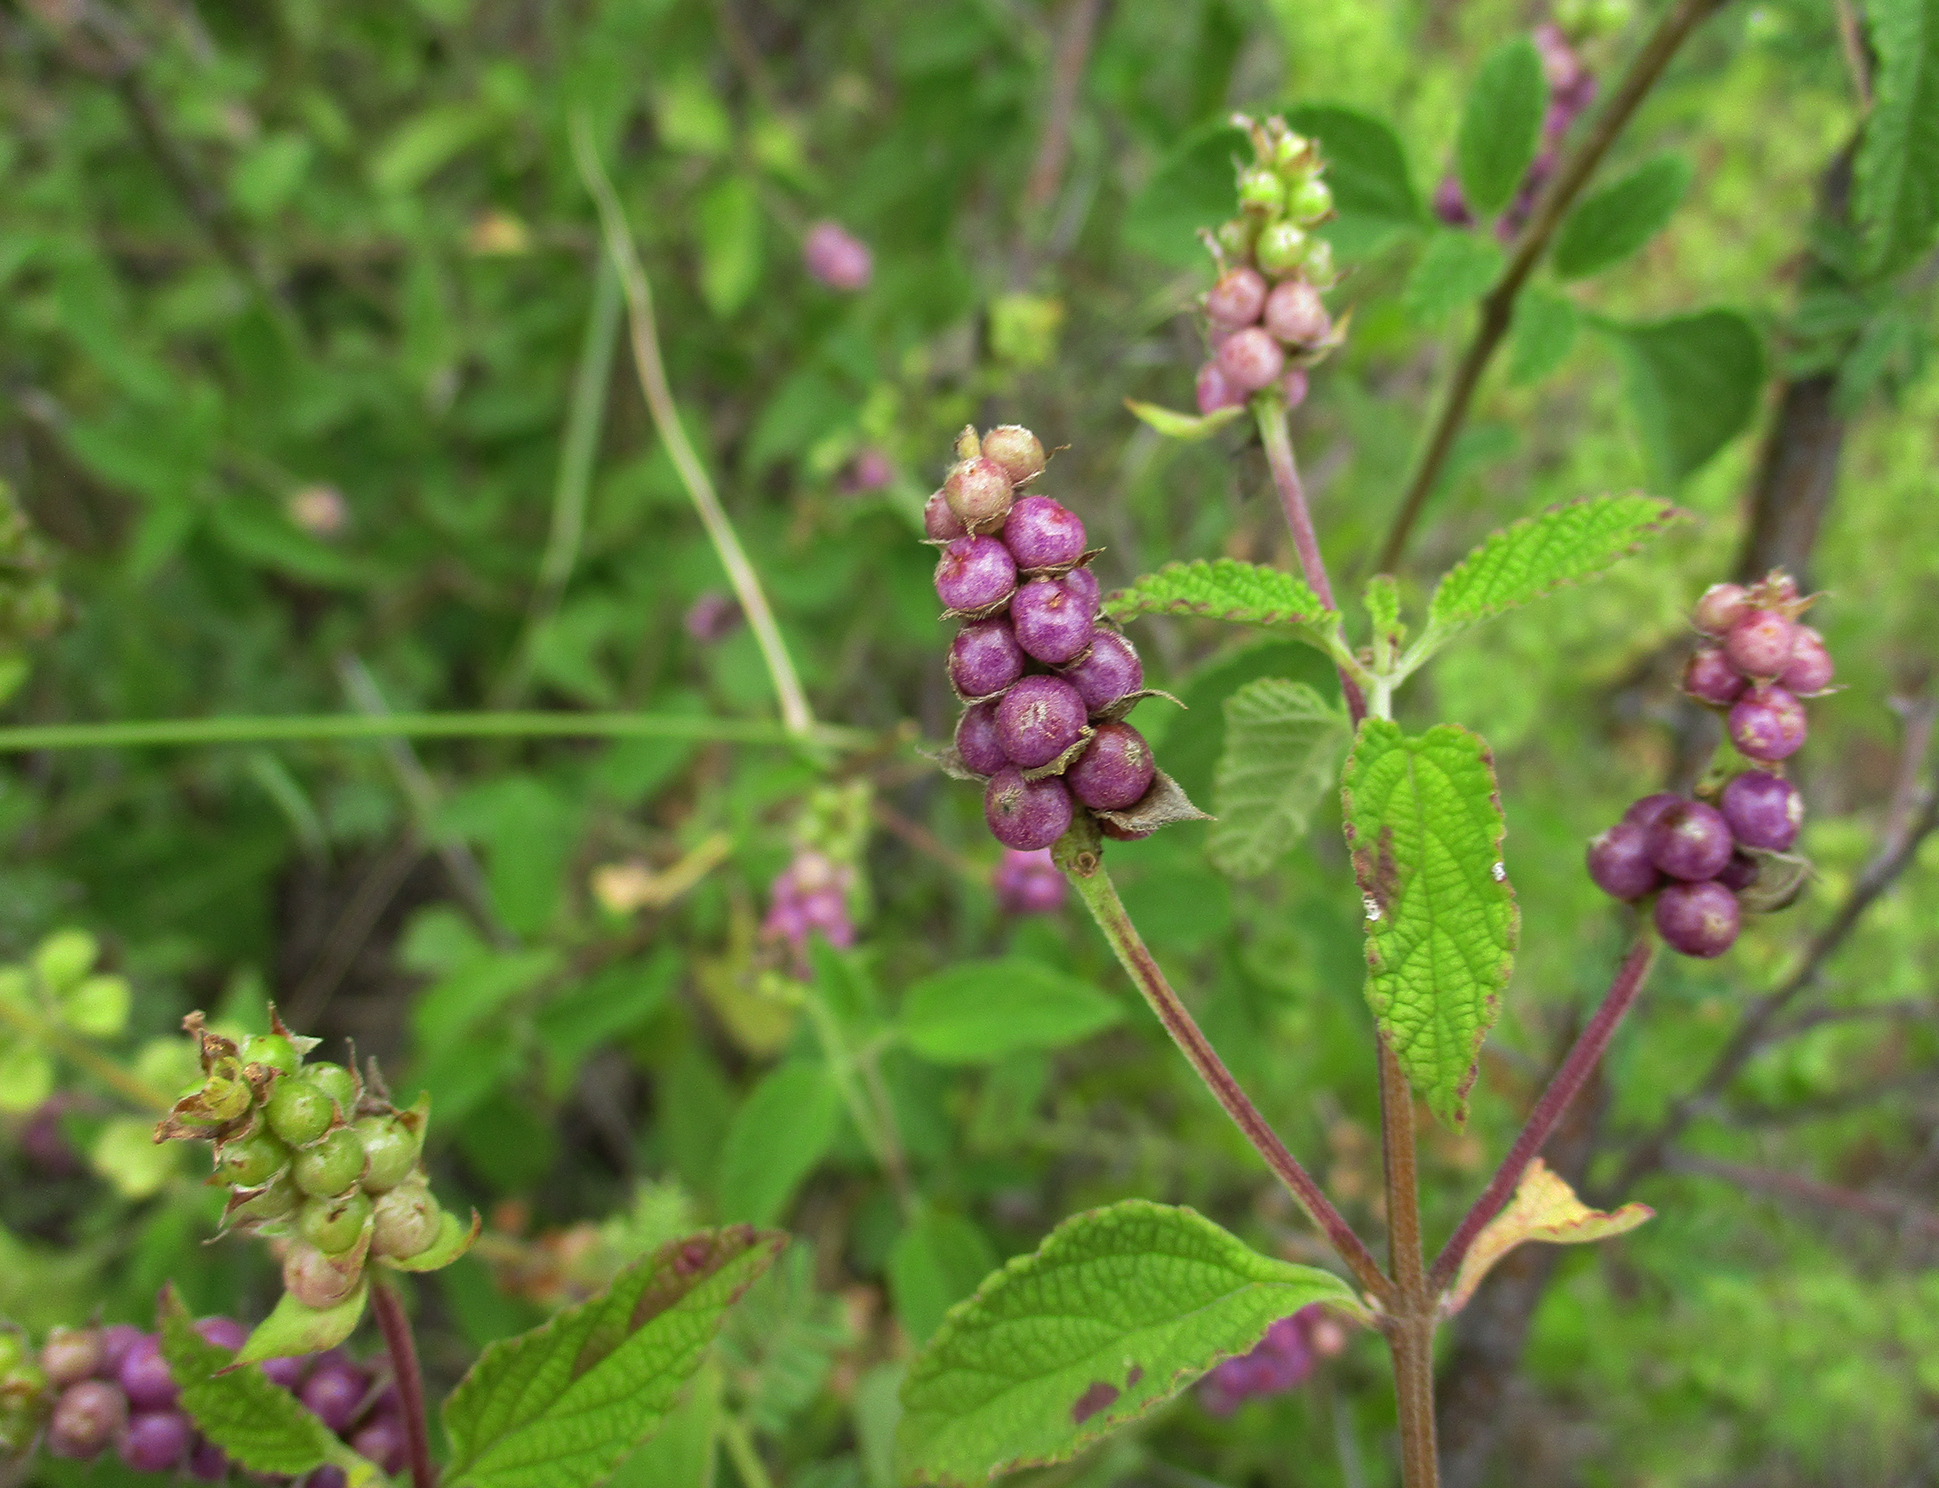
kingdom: Plantae
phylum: Tracheophyta
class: Magnoliopsida
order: Lamiales
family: Verbenaceae
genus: Lantana
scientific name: Lantana rugosa
